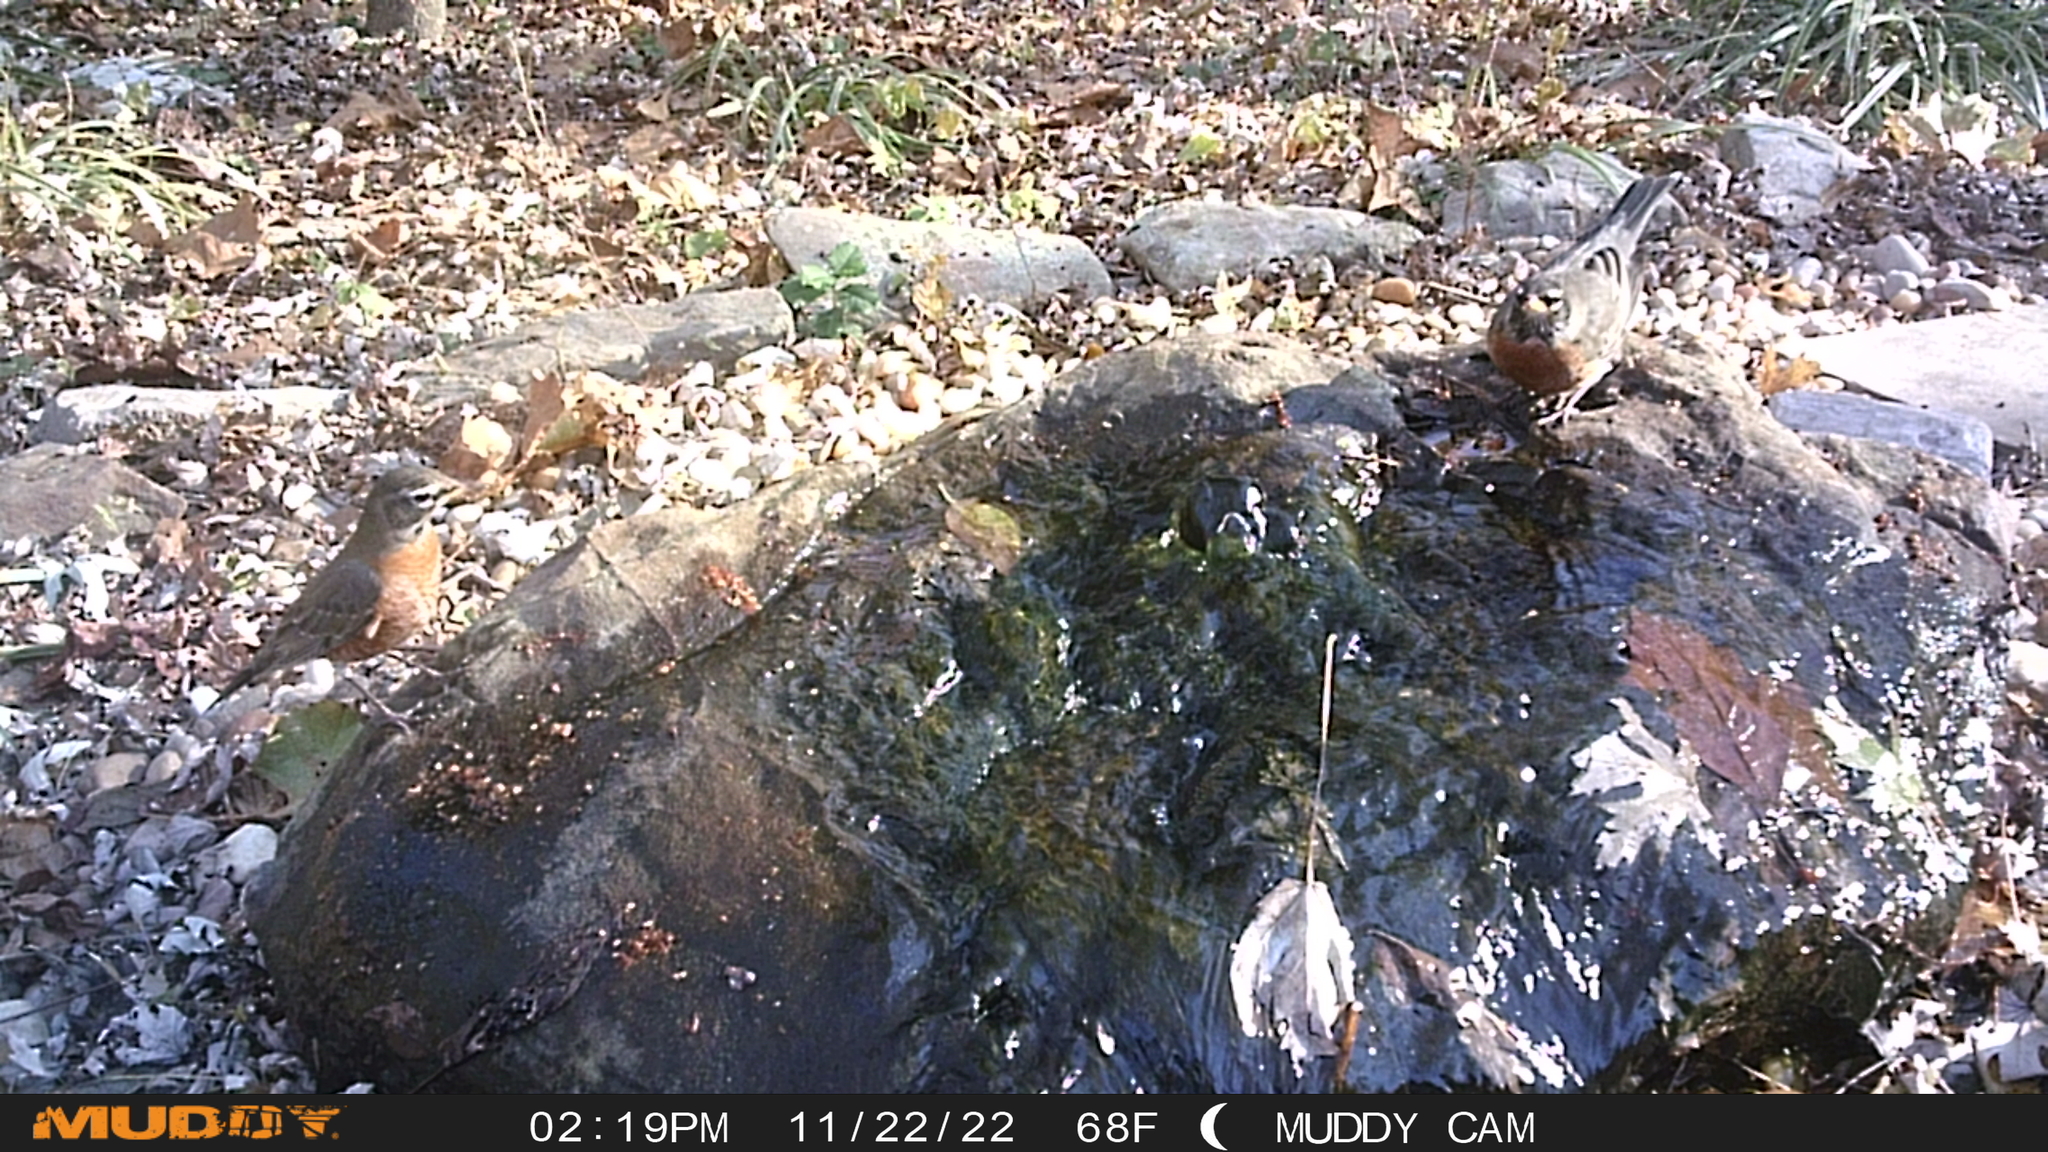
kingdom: Animalia
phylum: Chordata
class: Aves
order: Passeriformes
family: Turdidae
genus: Turdus
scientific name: Turdus migratorius
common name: American robin
